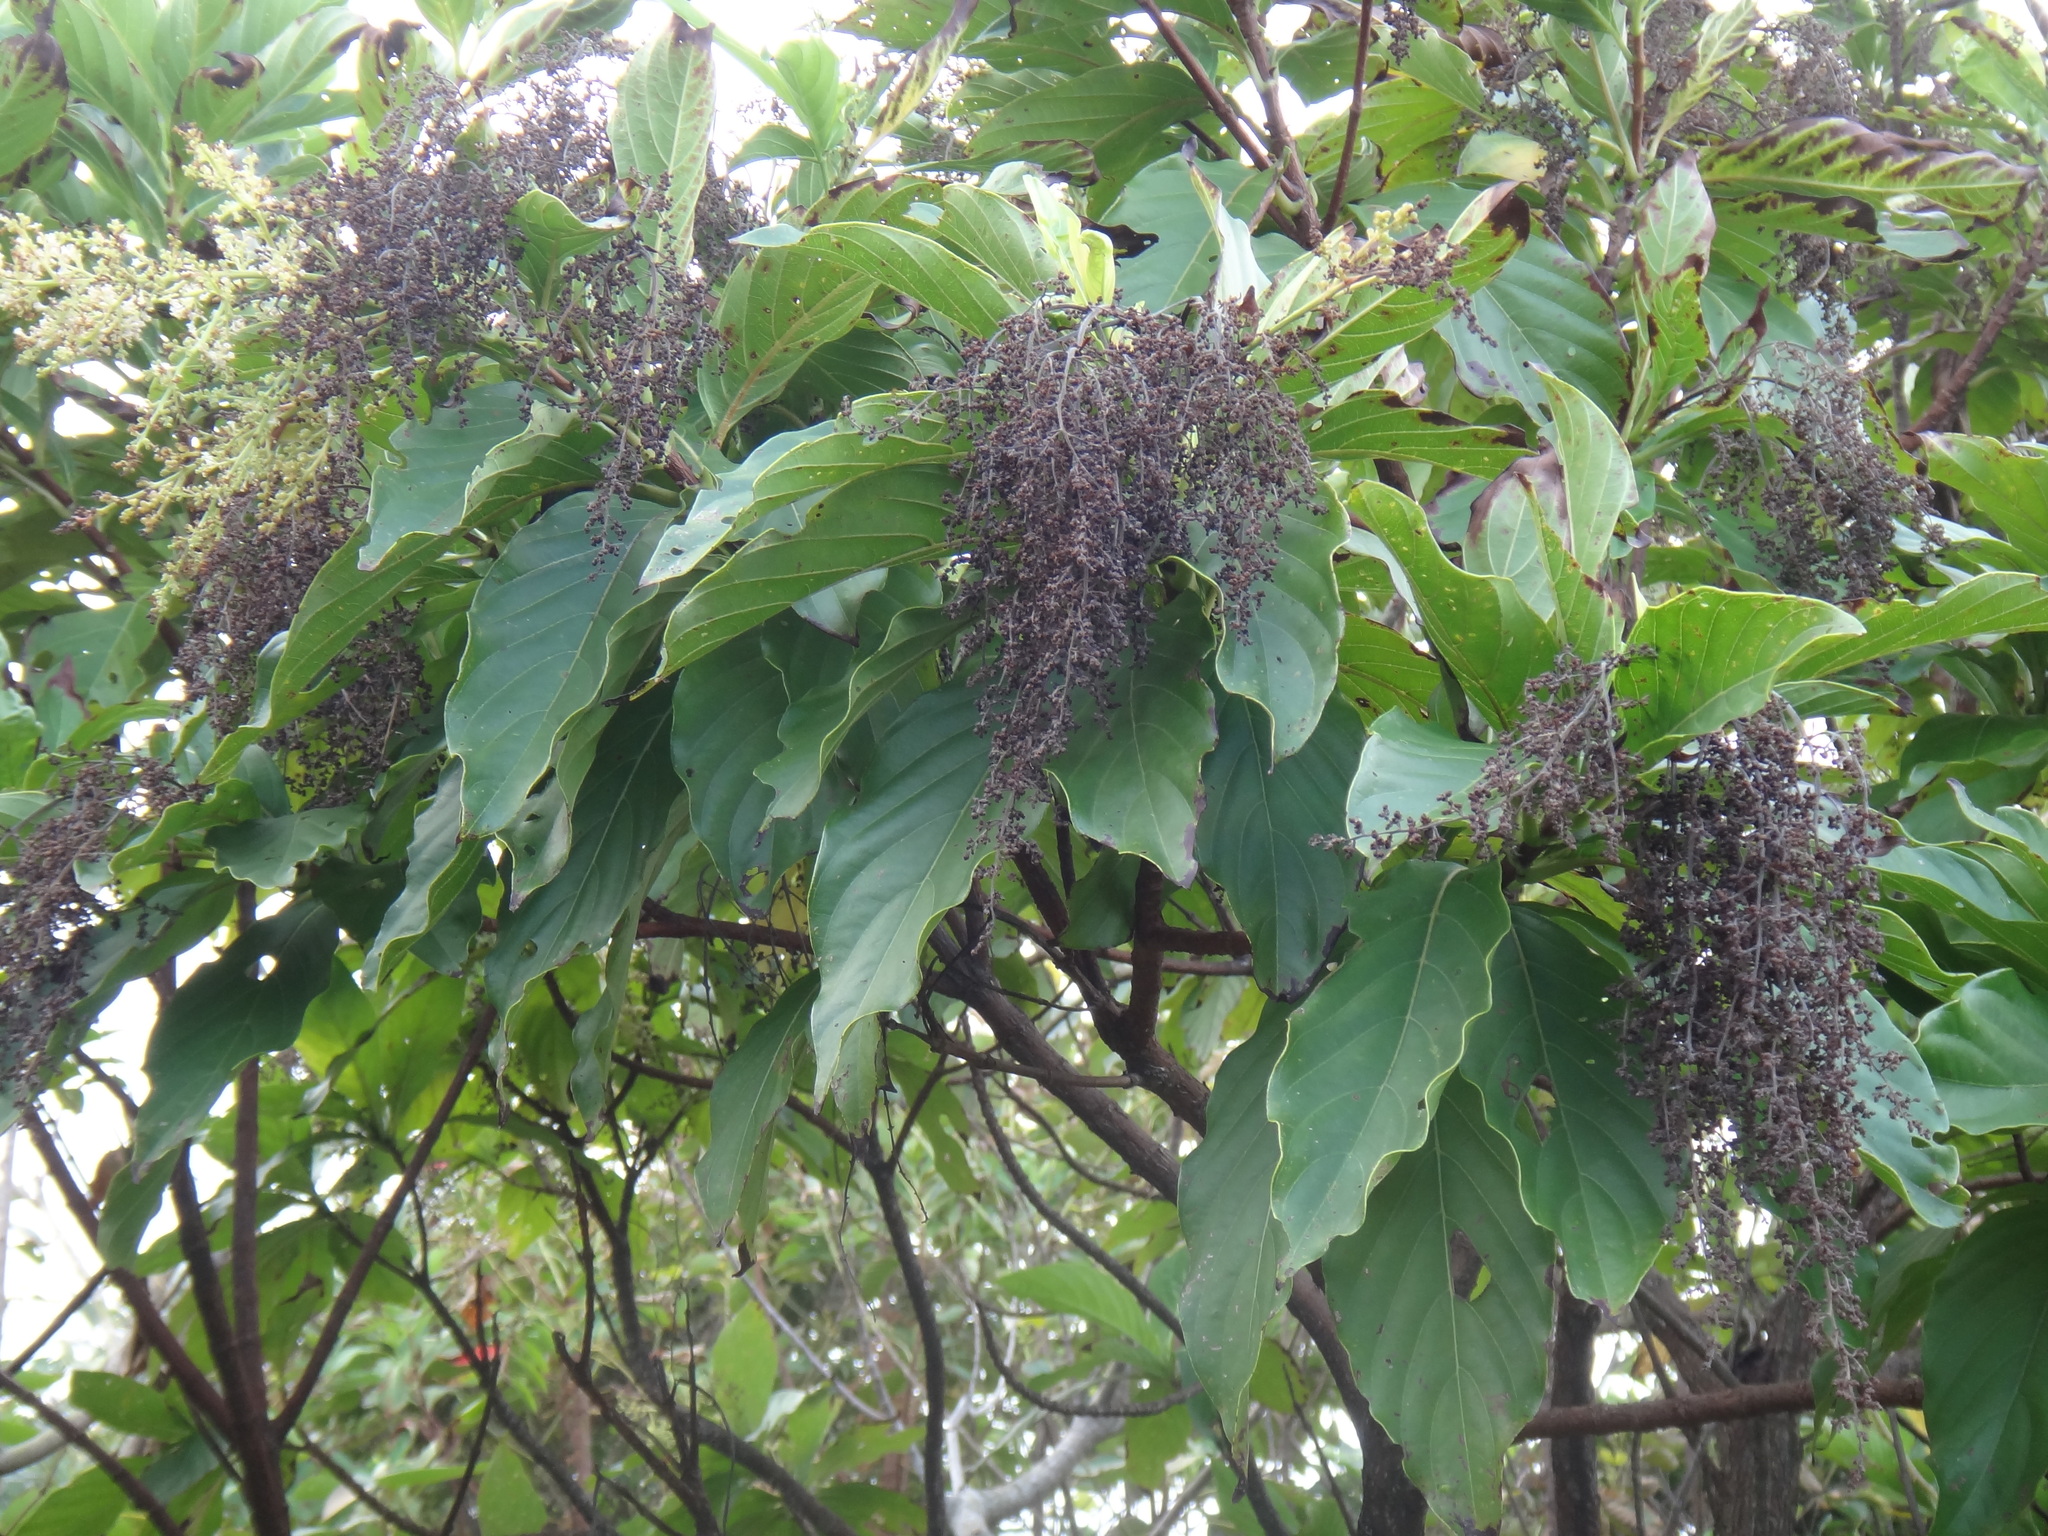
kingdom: Plantae
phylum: Tracheophyta
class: Magnoliopsida
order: Gentianales
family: Rubiaceae
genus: Wendlandia
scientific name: Wendlandia luzoniensis
